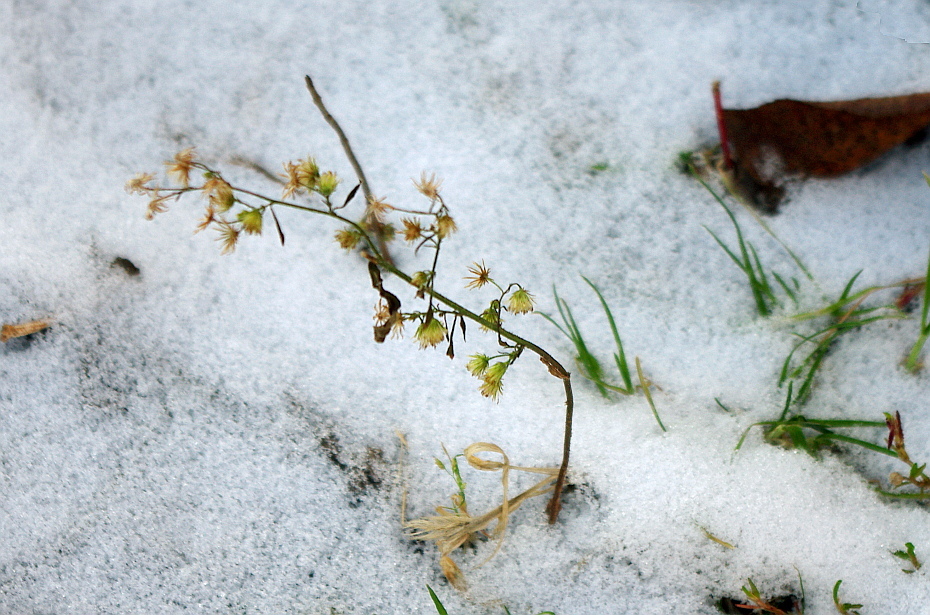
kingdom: Plantae
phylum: Tracheophyta
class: Magnoliopsida
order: Asterales
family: Asteraceae
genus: Erigeron
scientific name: Erigeron canadensis
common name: Canadian fleabane
